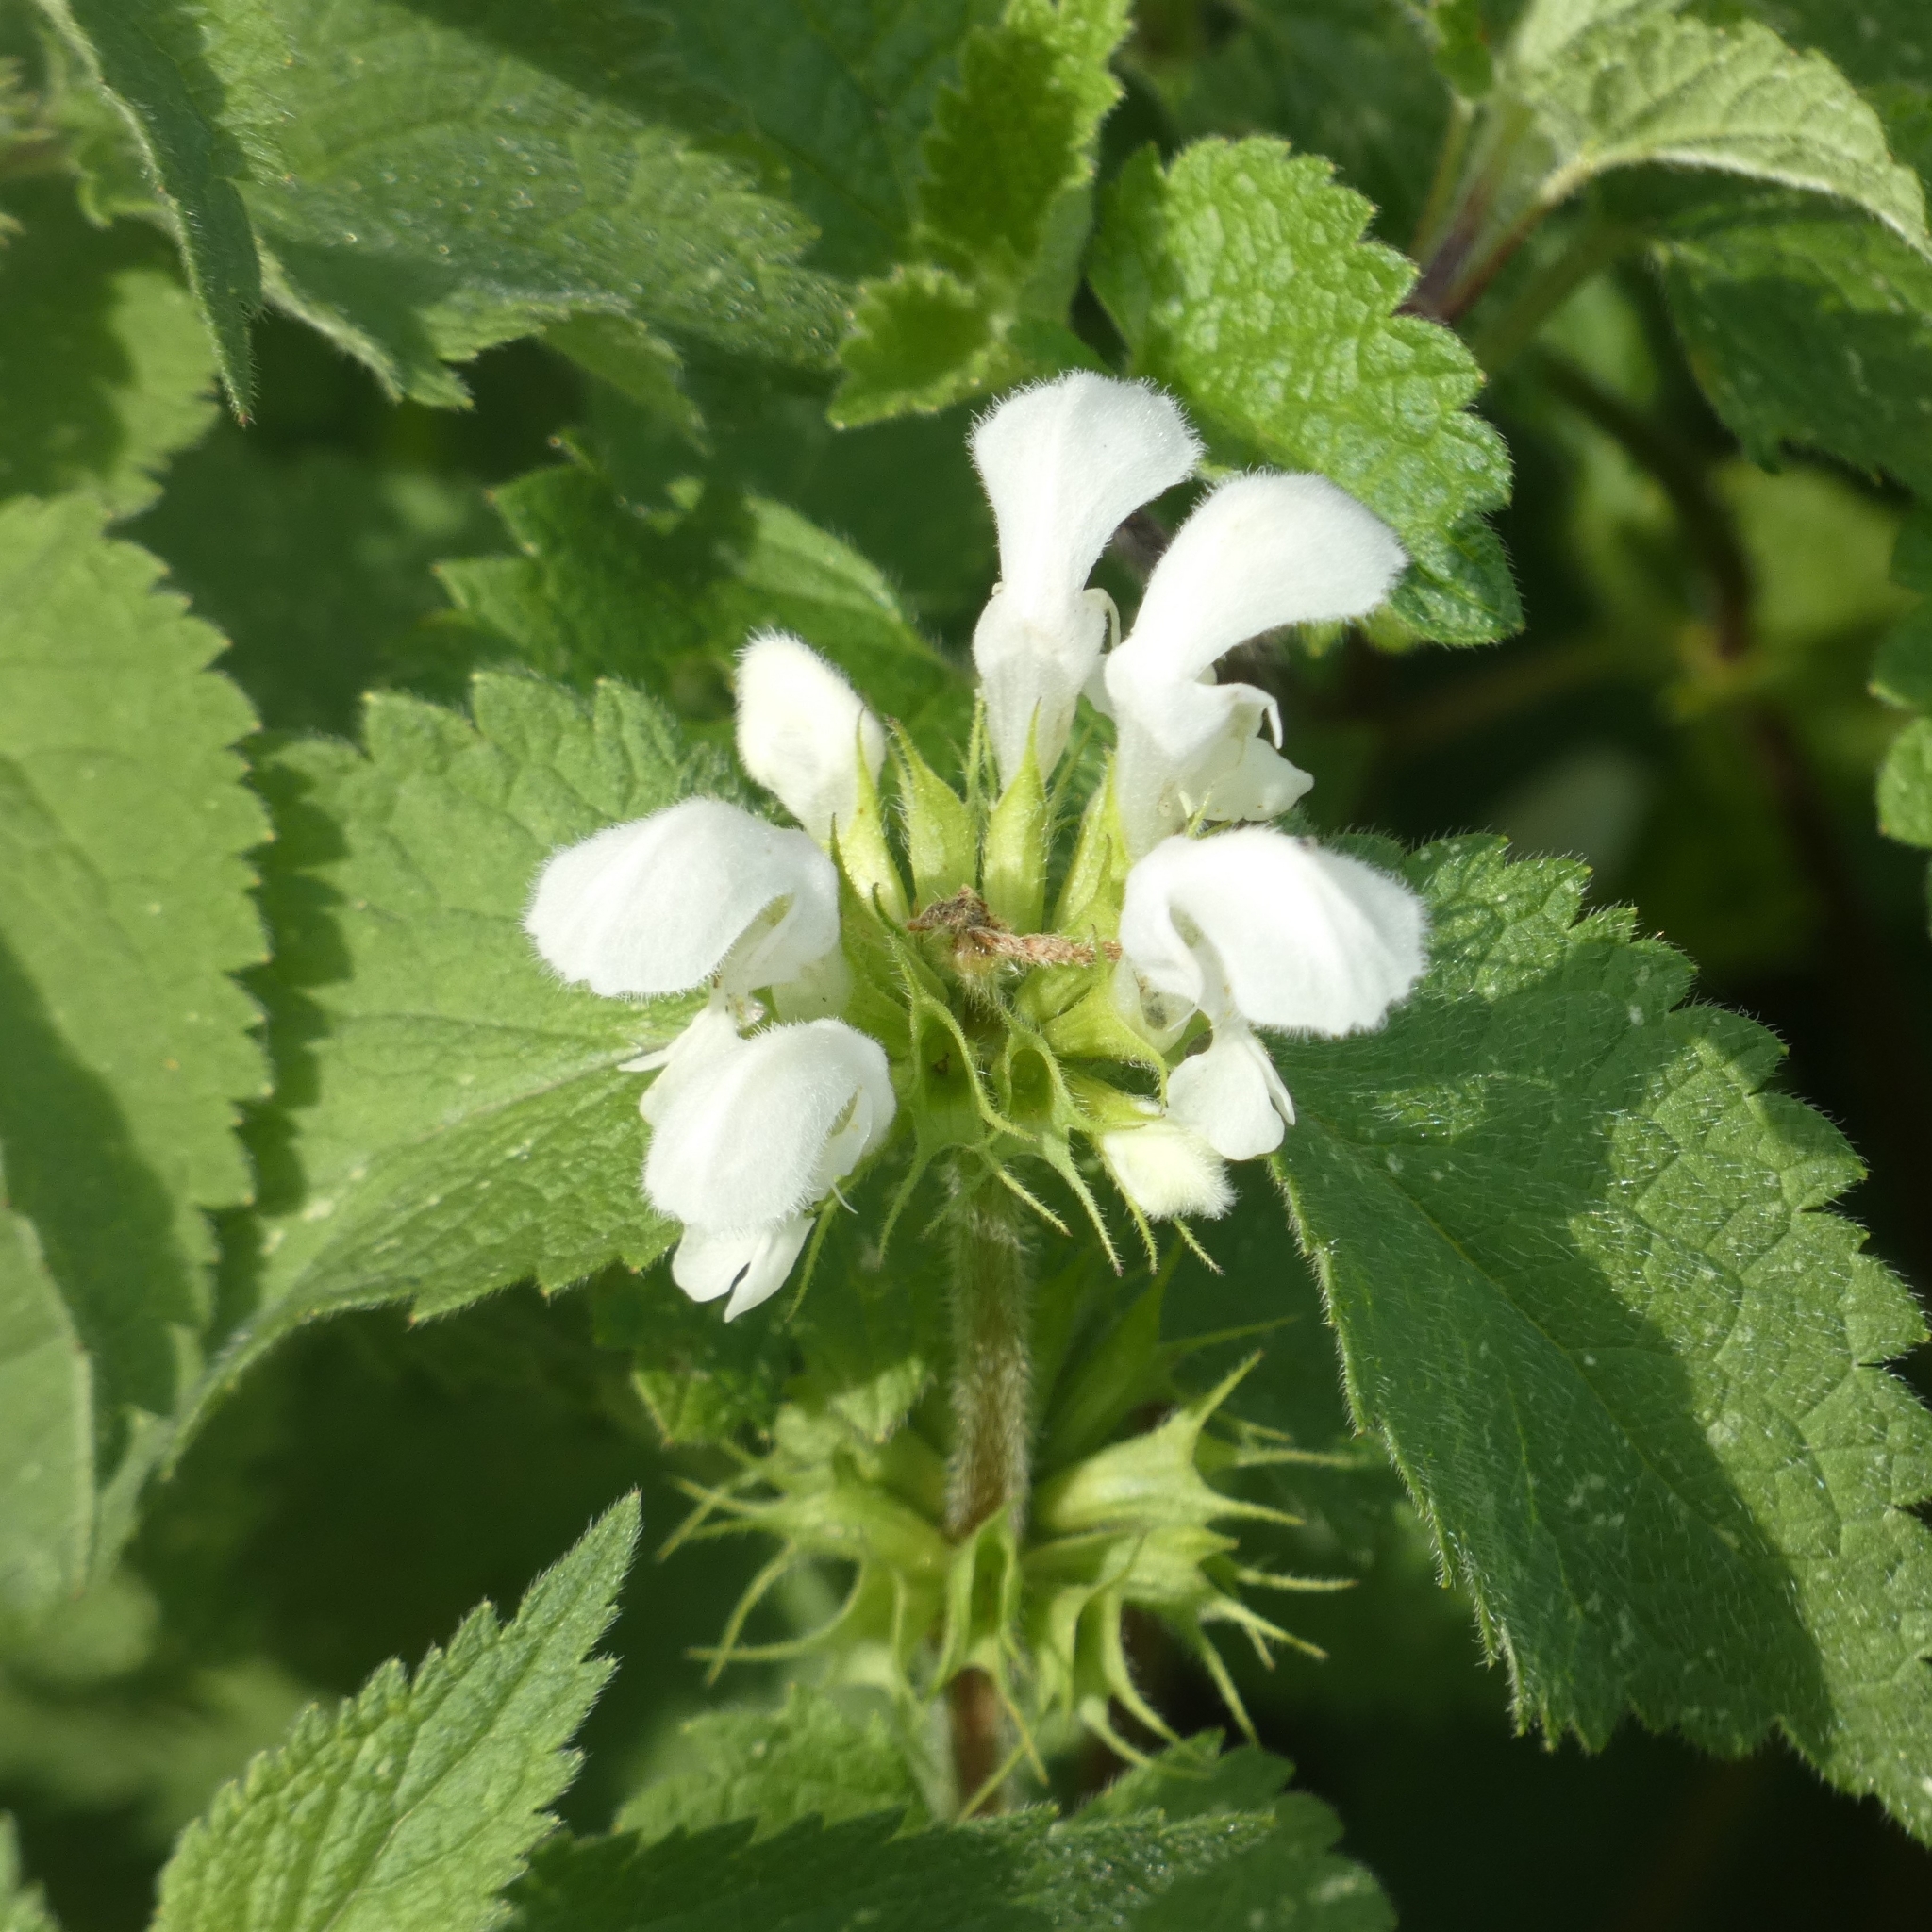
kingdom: Plantae
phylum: Tracheophyta
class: Magnoliopsida
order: Lamiales
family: Lamiaceae
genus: Lamium
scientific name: Lamium album
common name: White dead-nettle
